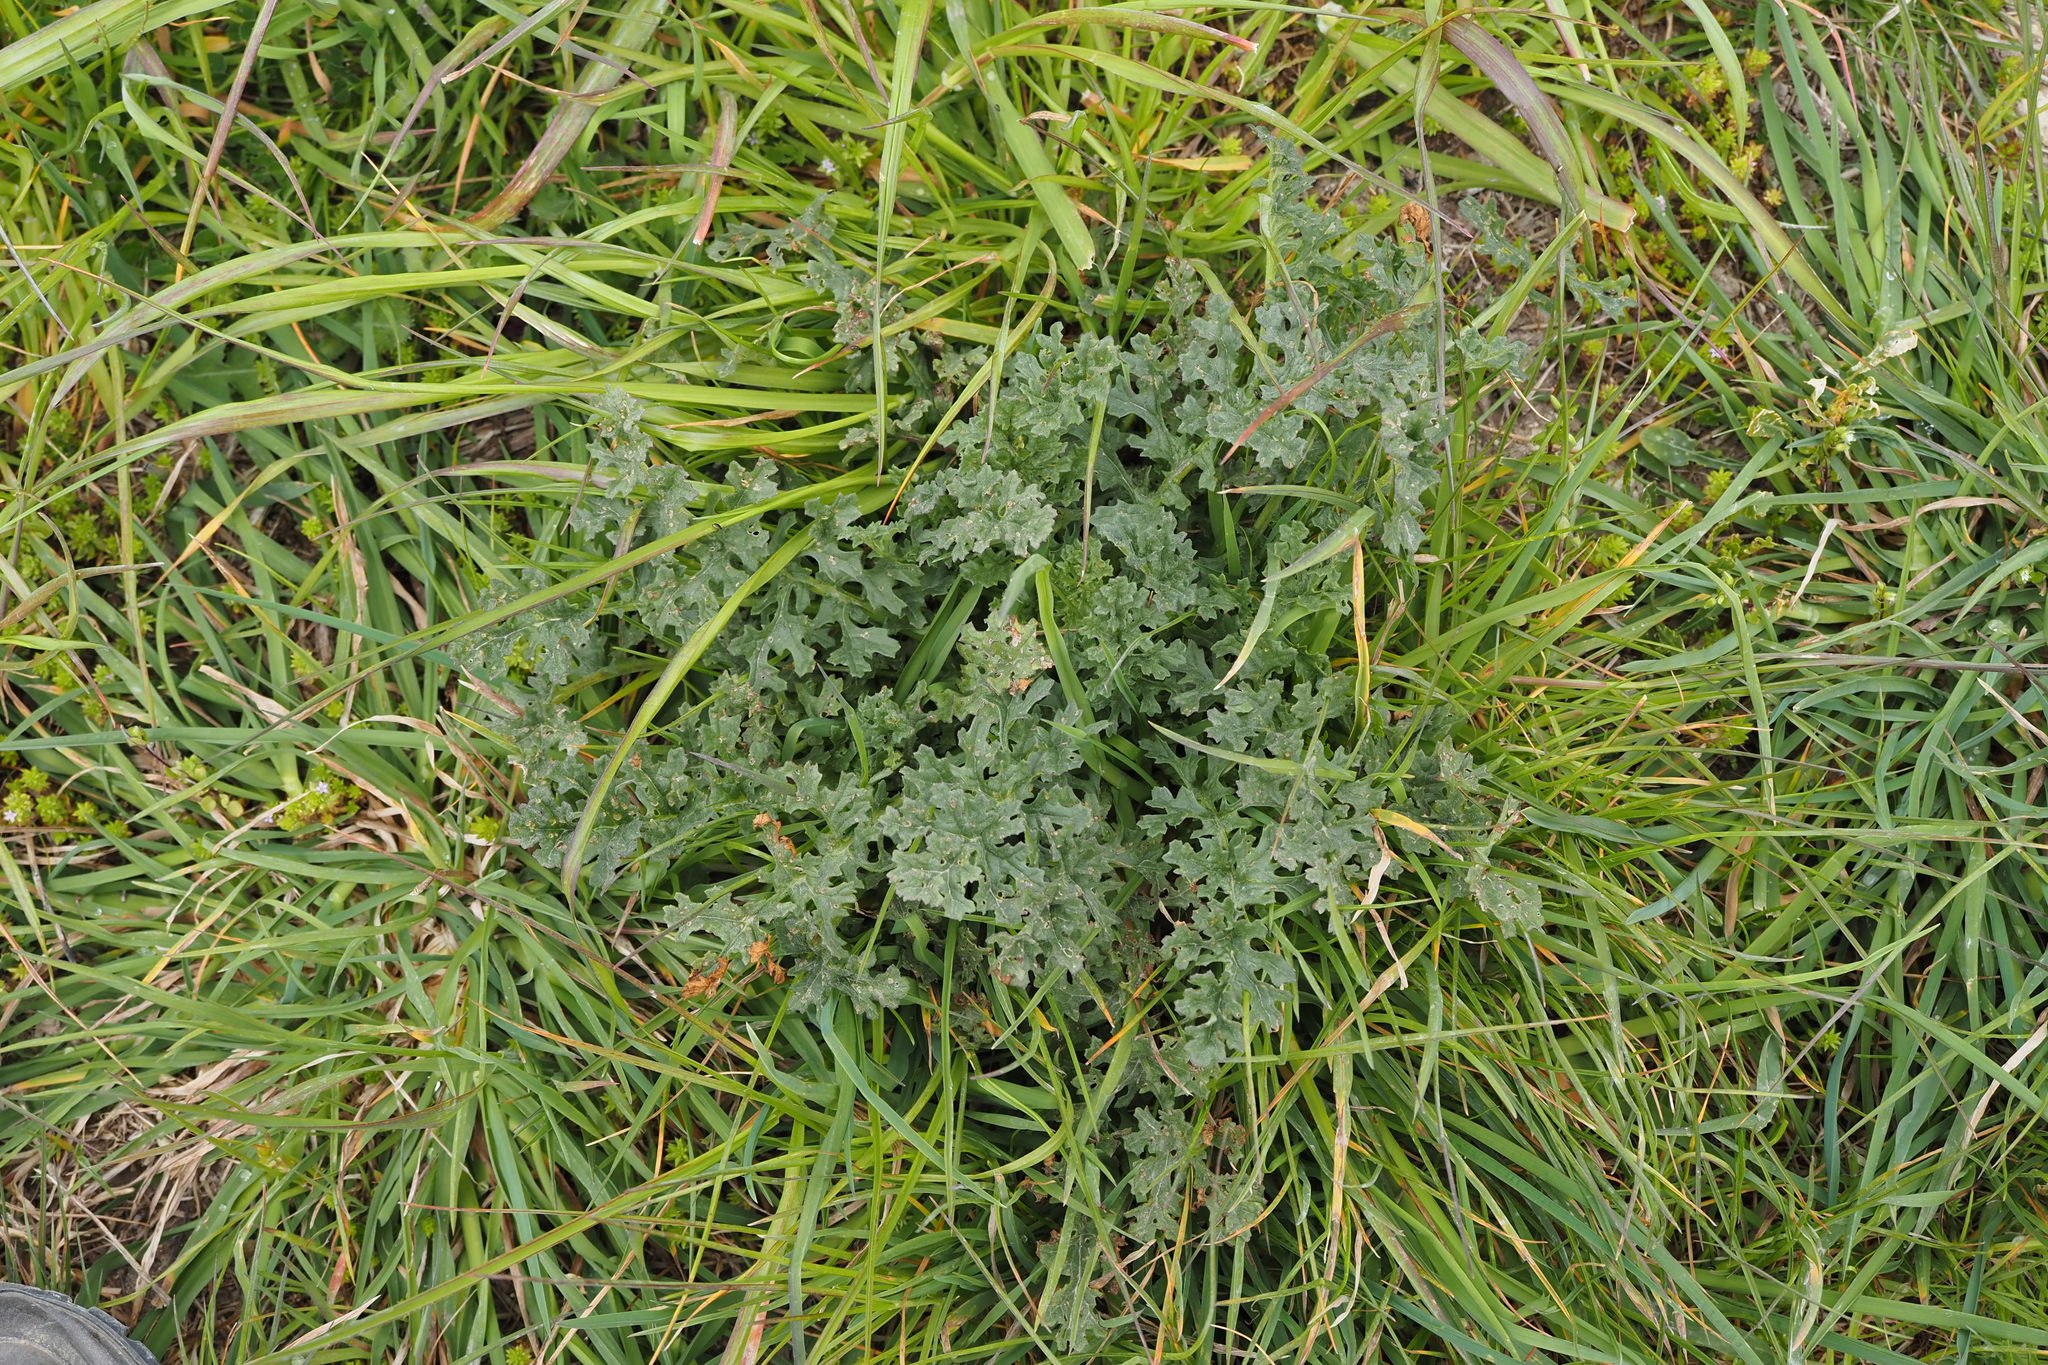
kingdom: Plantae
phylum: Tracheophyta
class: Magnoliopsida
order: Asterales
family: Asteraceae
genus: Jacobaea
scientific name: Jacobaea vulgaris
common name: Stinking willie
